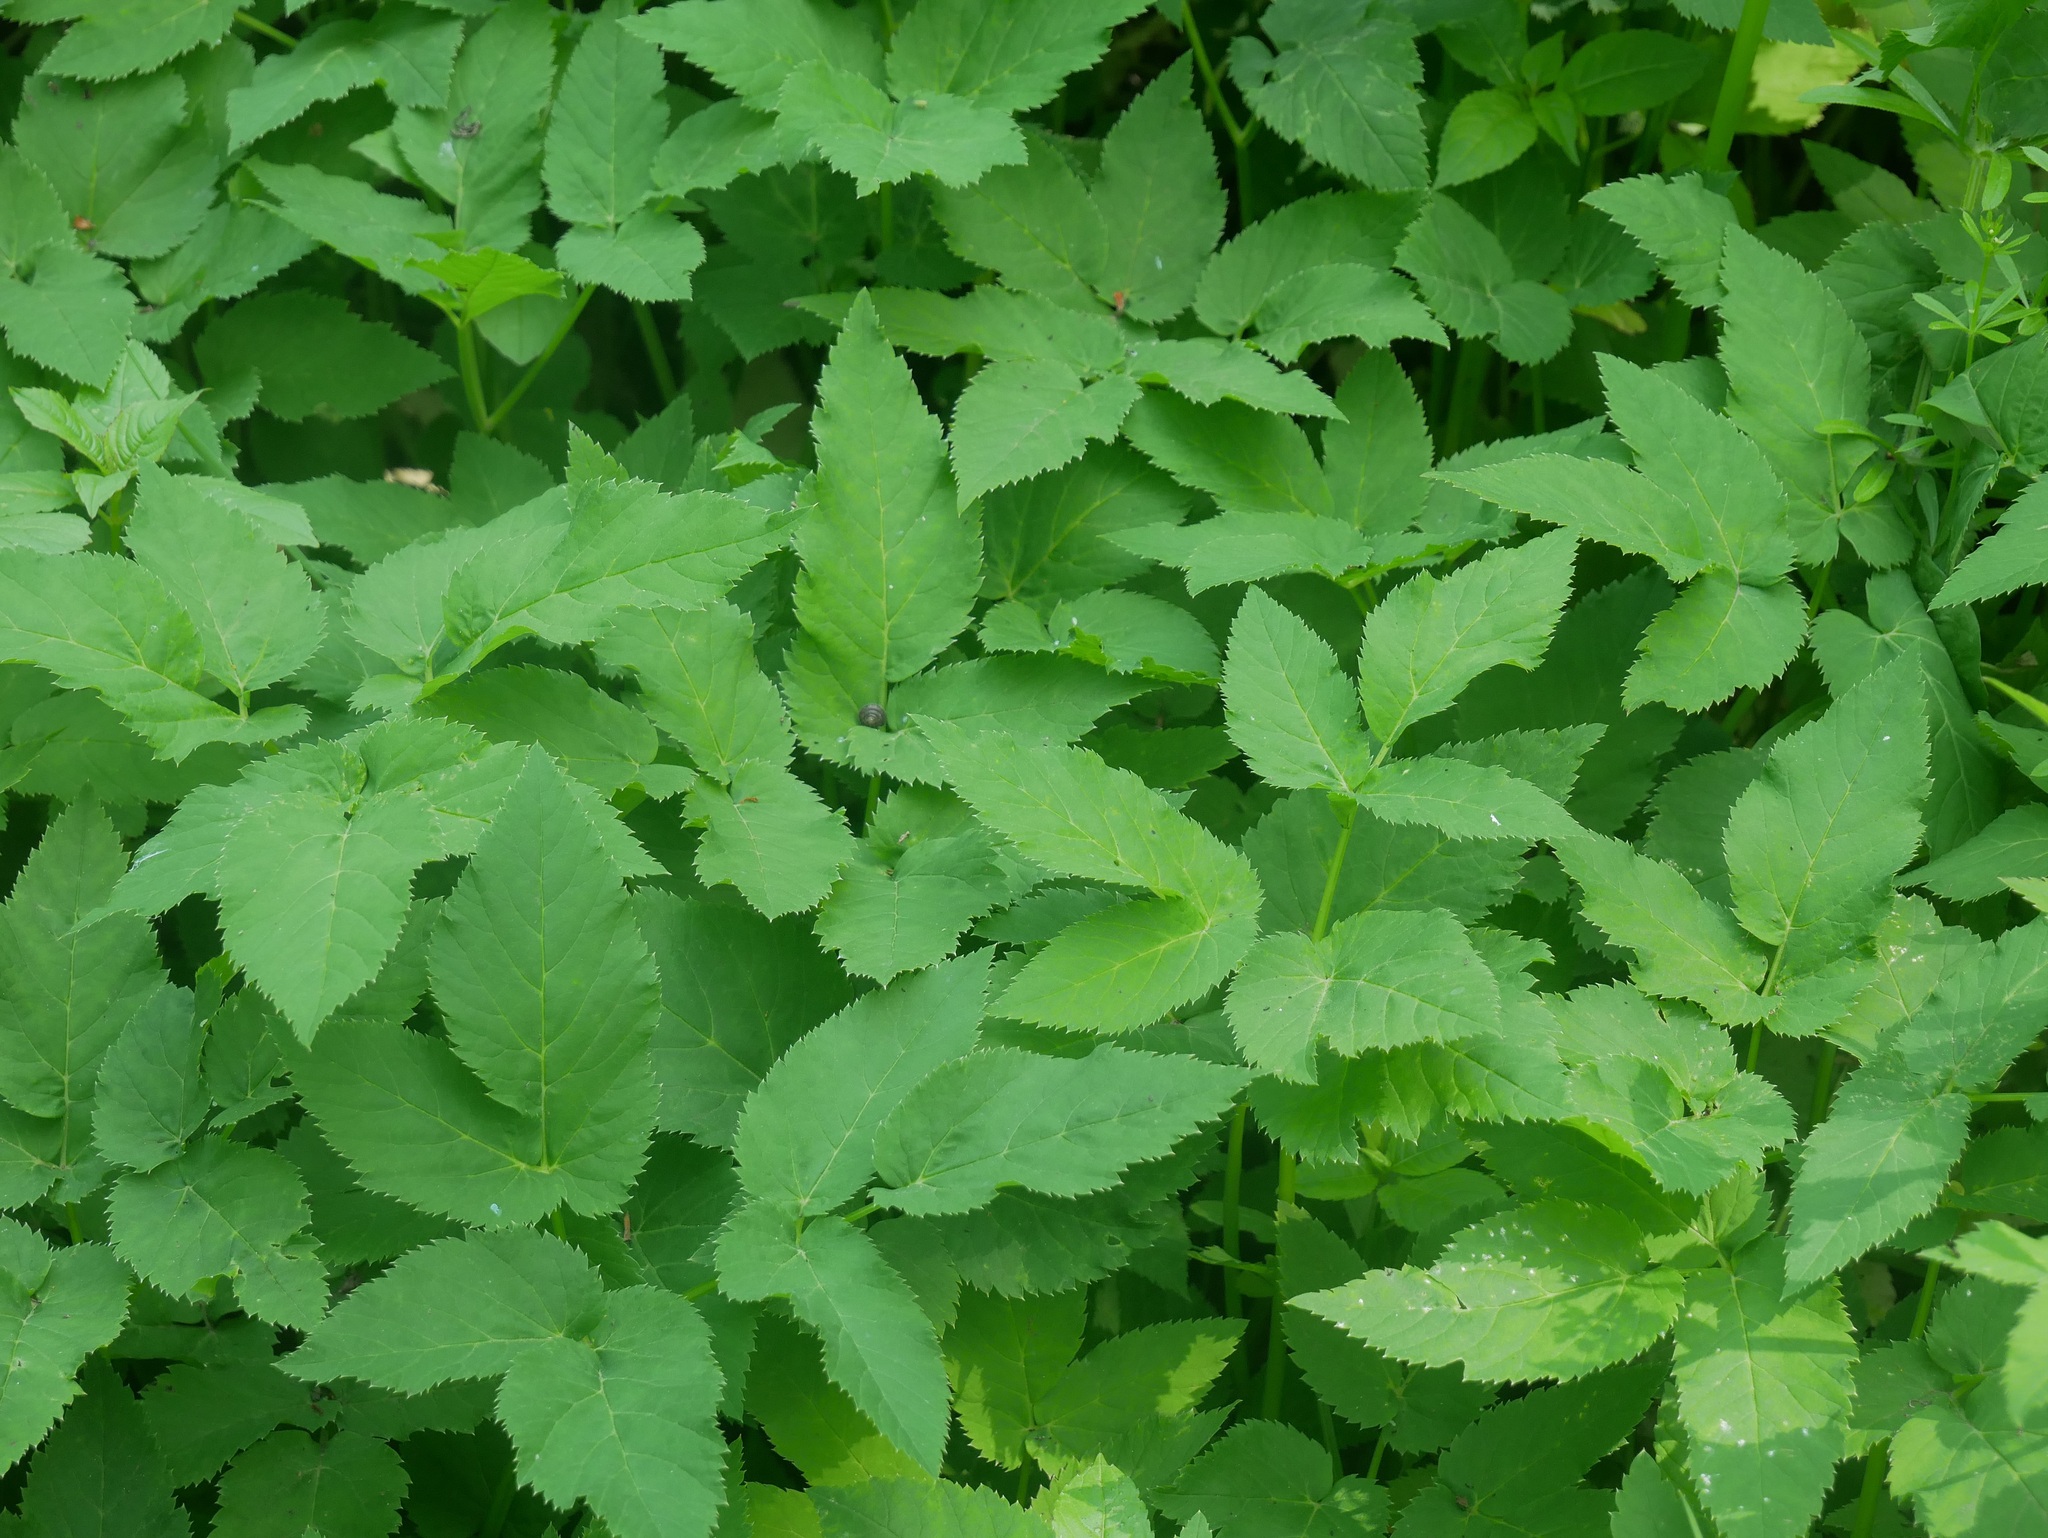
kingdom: Plantae
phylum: Tracheophyta
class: Magnoliopsida
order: Apiales
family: Apiaceae
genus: Aegopodium
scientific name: Aegopodium podagraria
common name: Ground-elder
